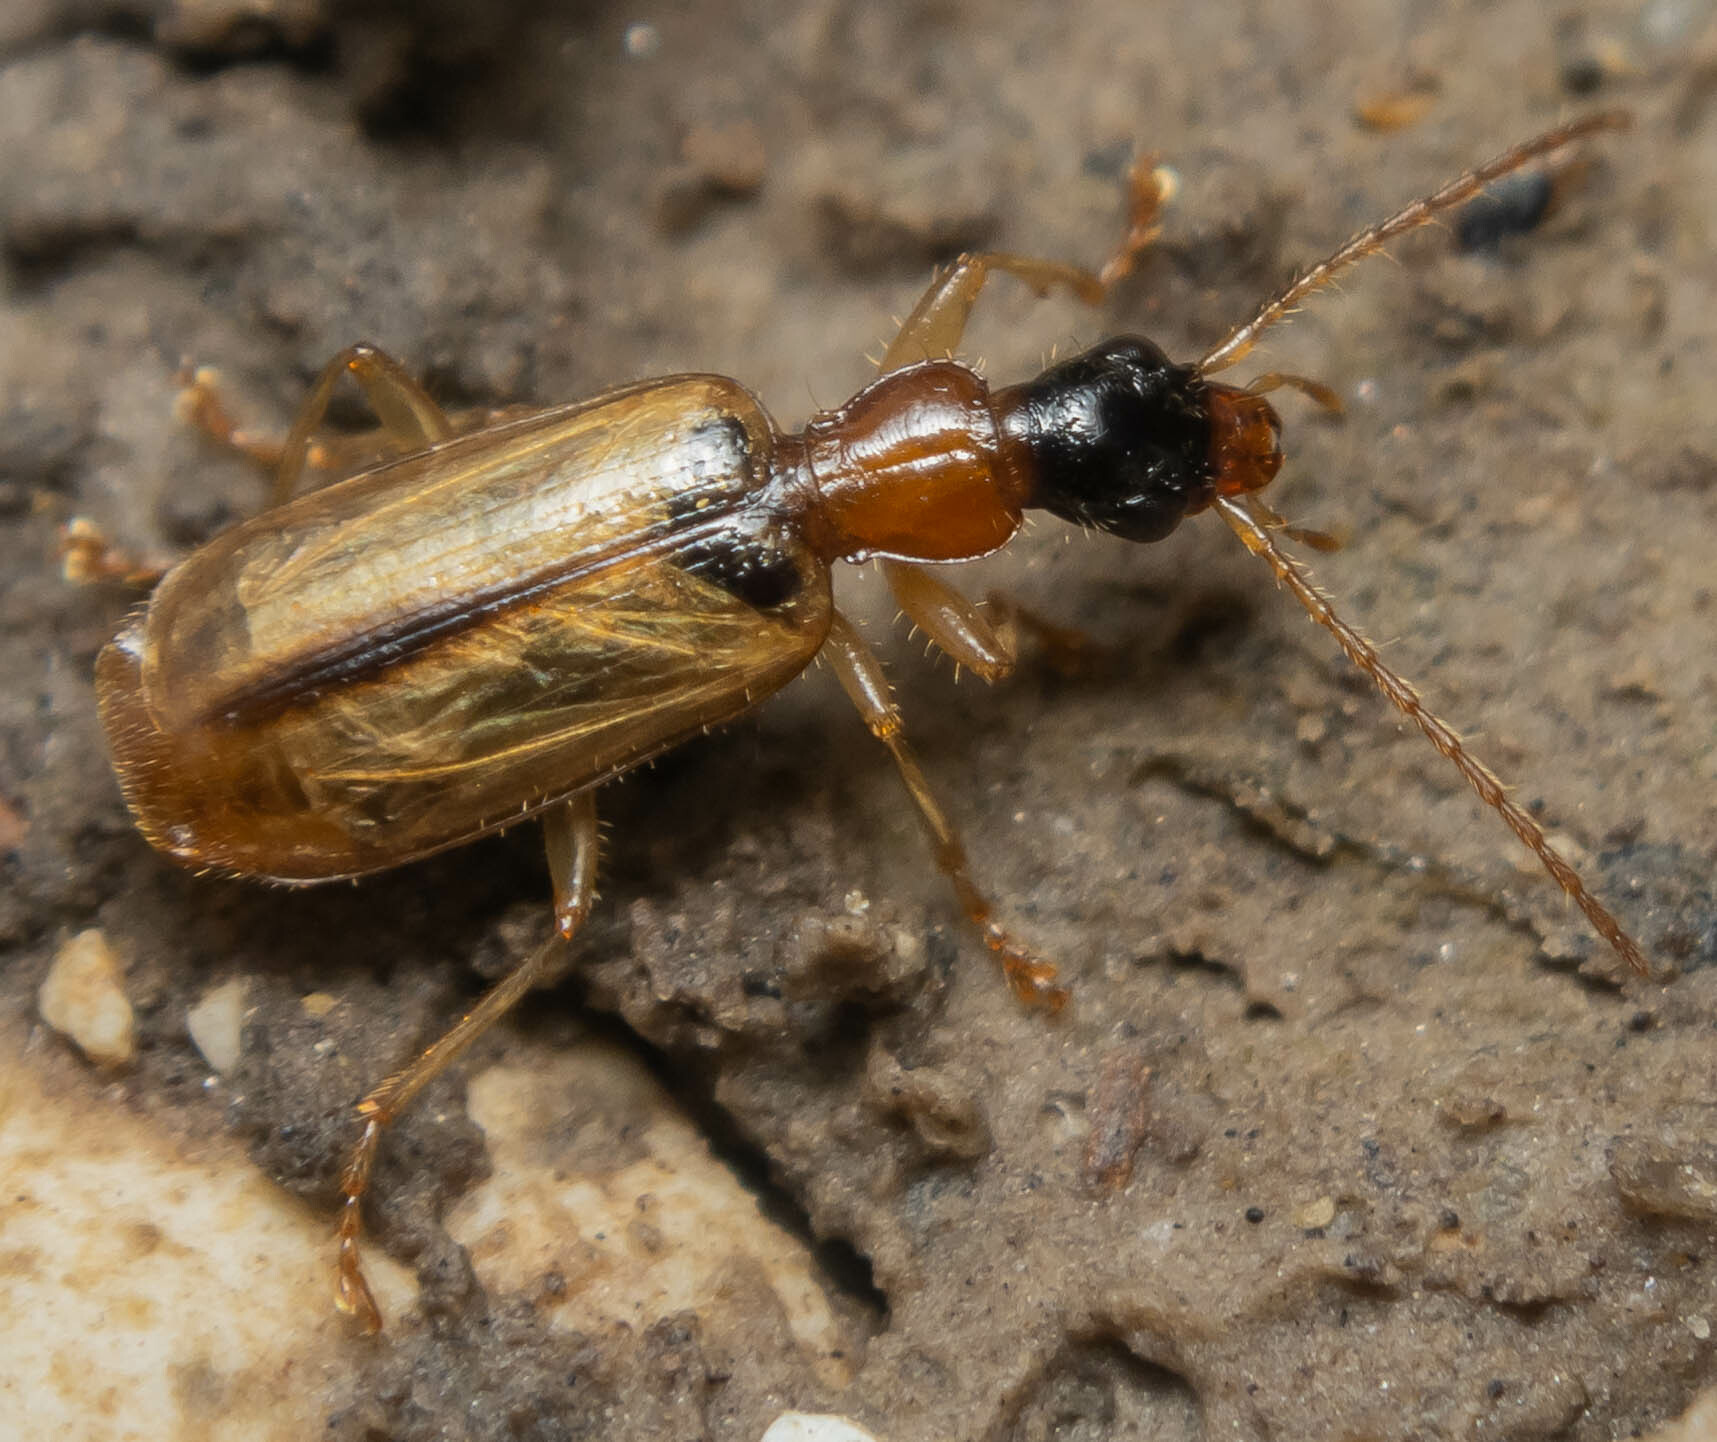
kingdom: Animalia
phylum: Arthropoda
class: Insecta
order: Coleoptera
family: Carabidae
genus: Demetrias
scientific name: Demetrias atricapillus
